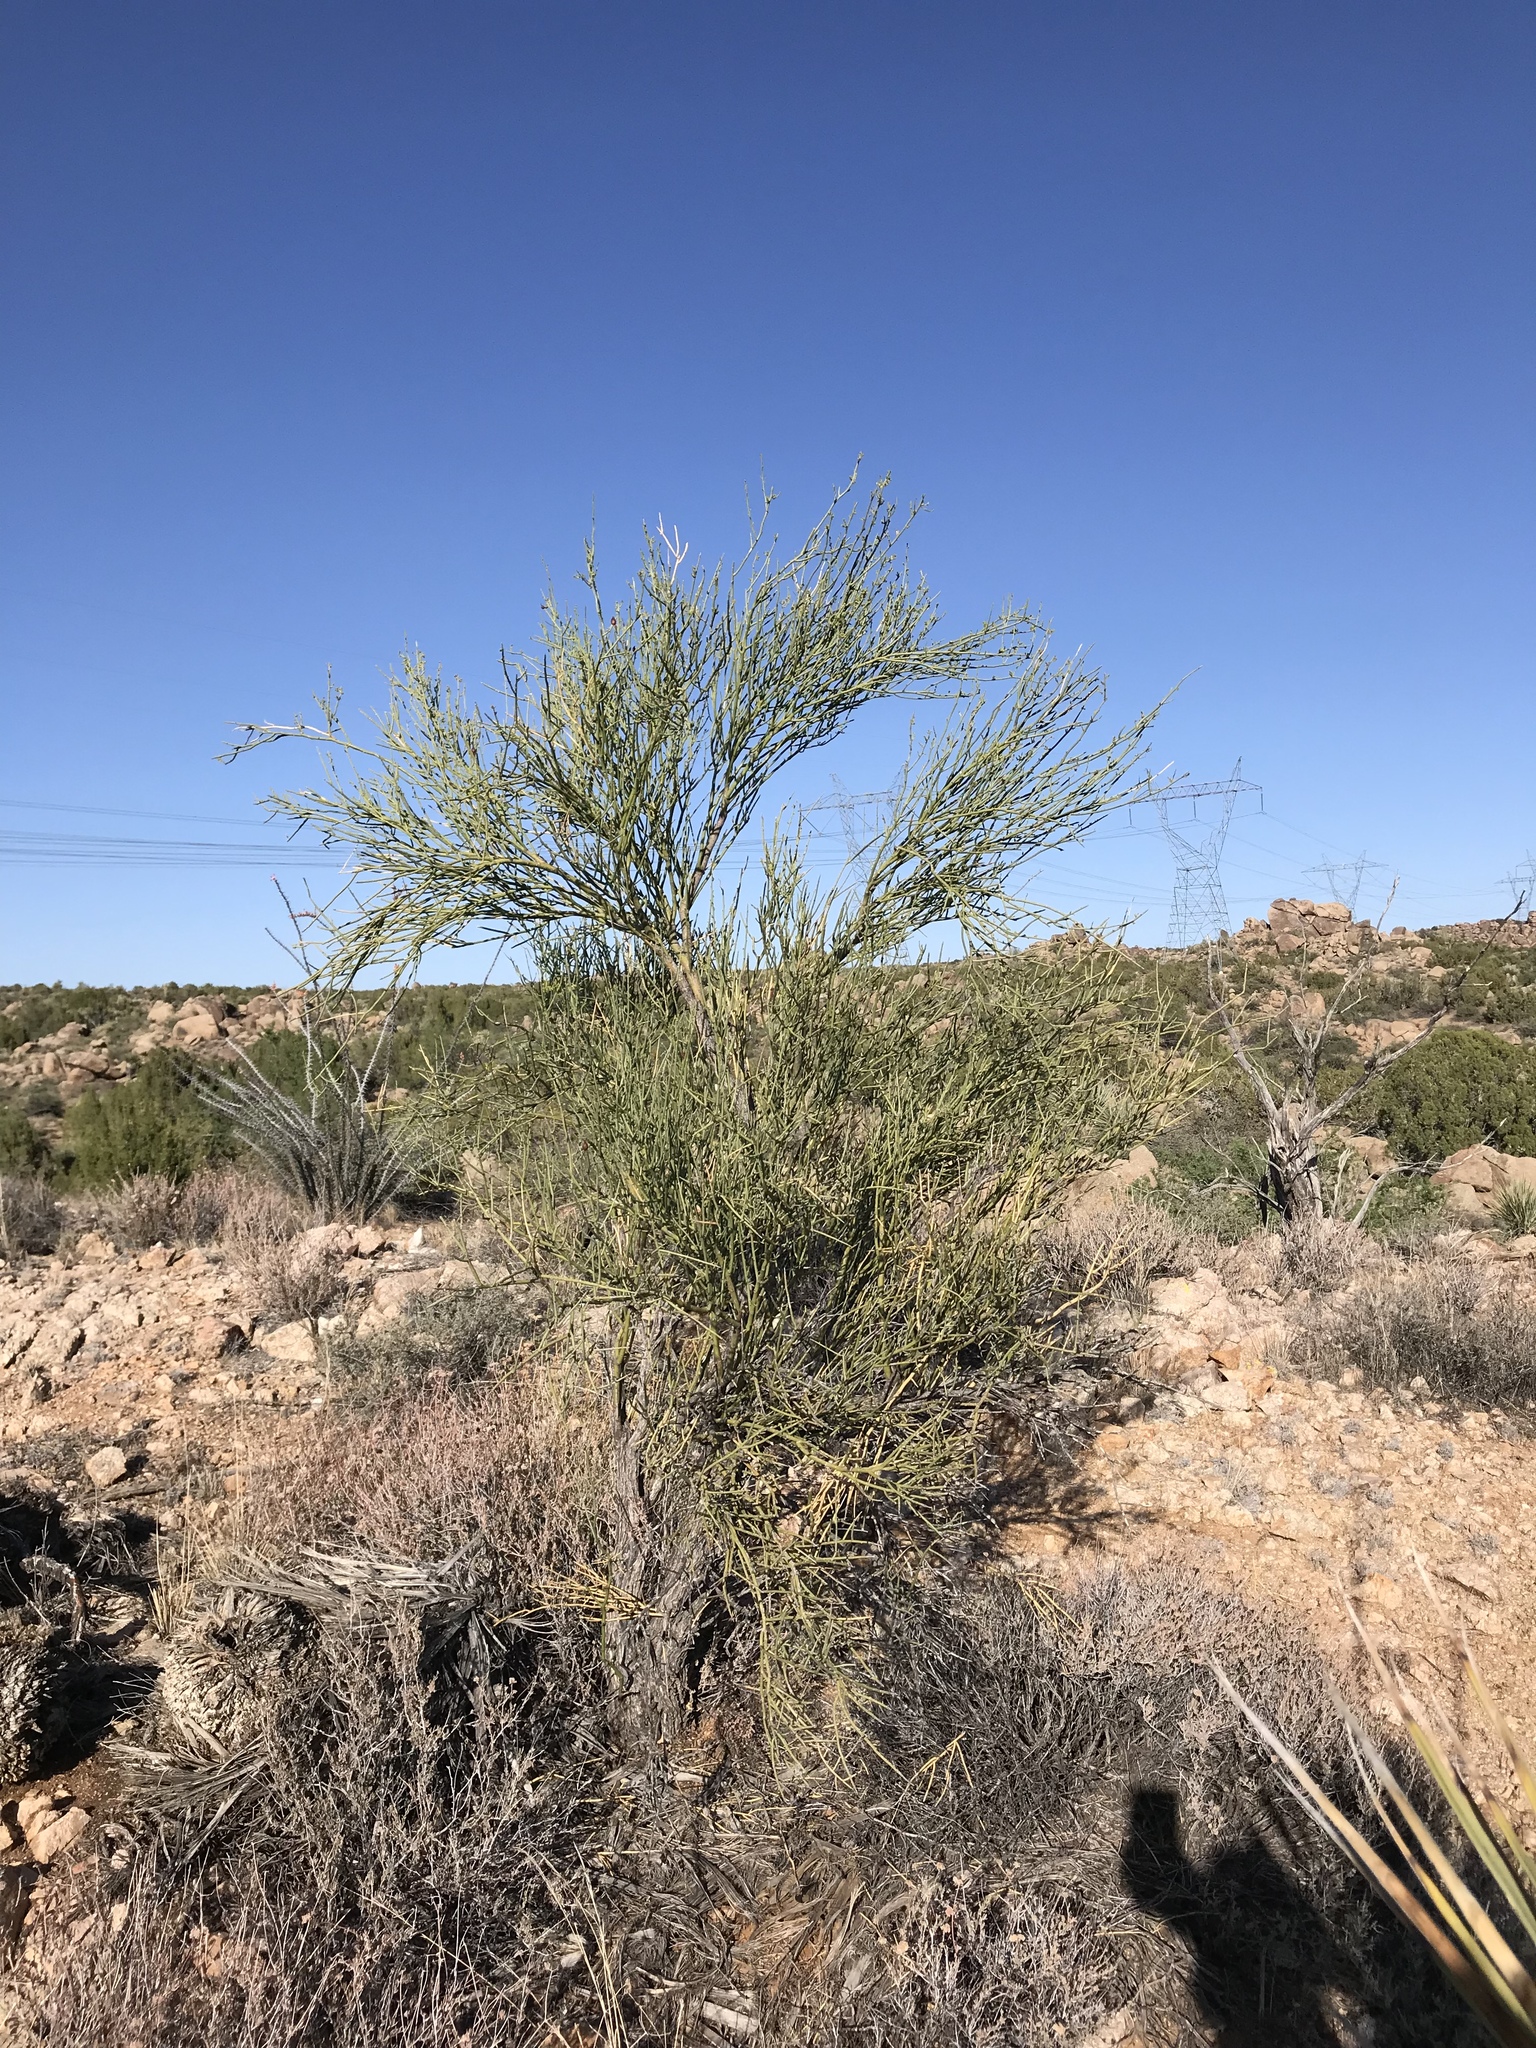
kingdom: Plantae
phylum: Tracheophyta
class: Magnoliopsida
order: Celastrales
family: Celastraceae
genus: Canotia
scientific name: Canotia holacantha
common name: Crucifixion thorns
